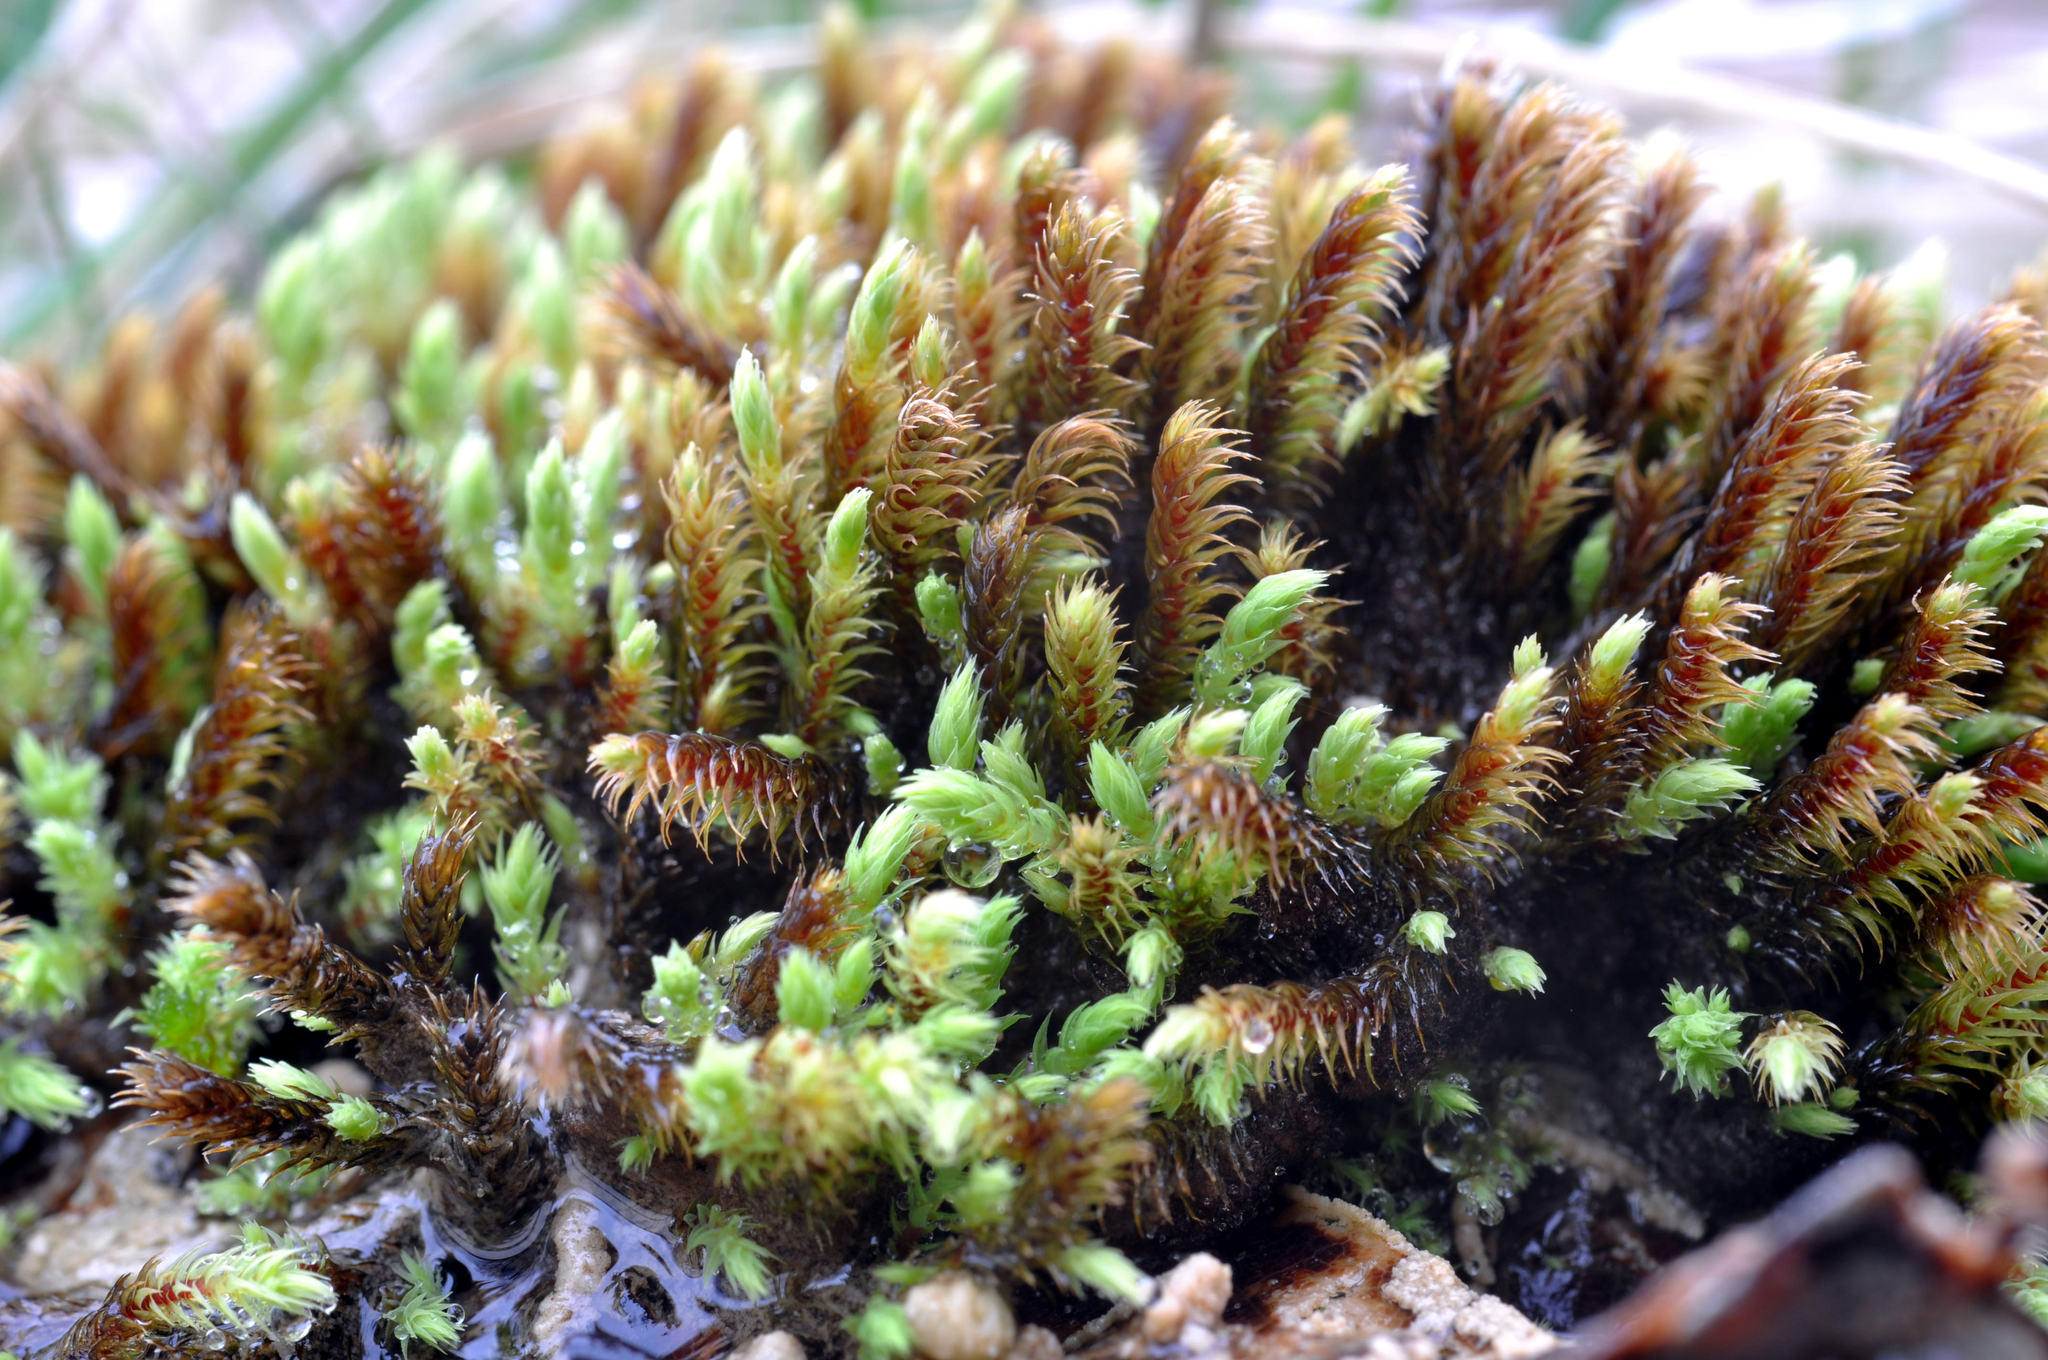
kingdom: Plantae
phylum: Bryophyta
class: Bryopsida
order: Bartramiales
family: Bartramiaceae
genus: Philonotis
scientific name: Philonotis calcarea
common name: Thick-nerved apple-moss
